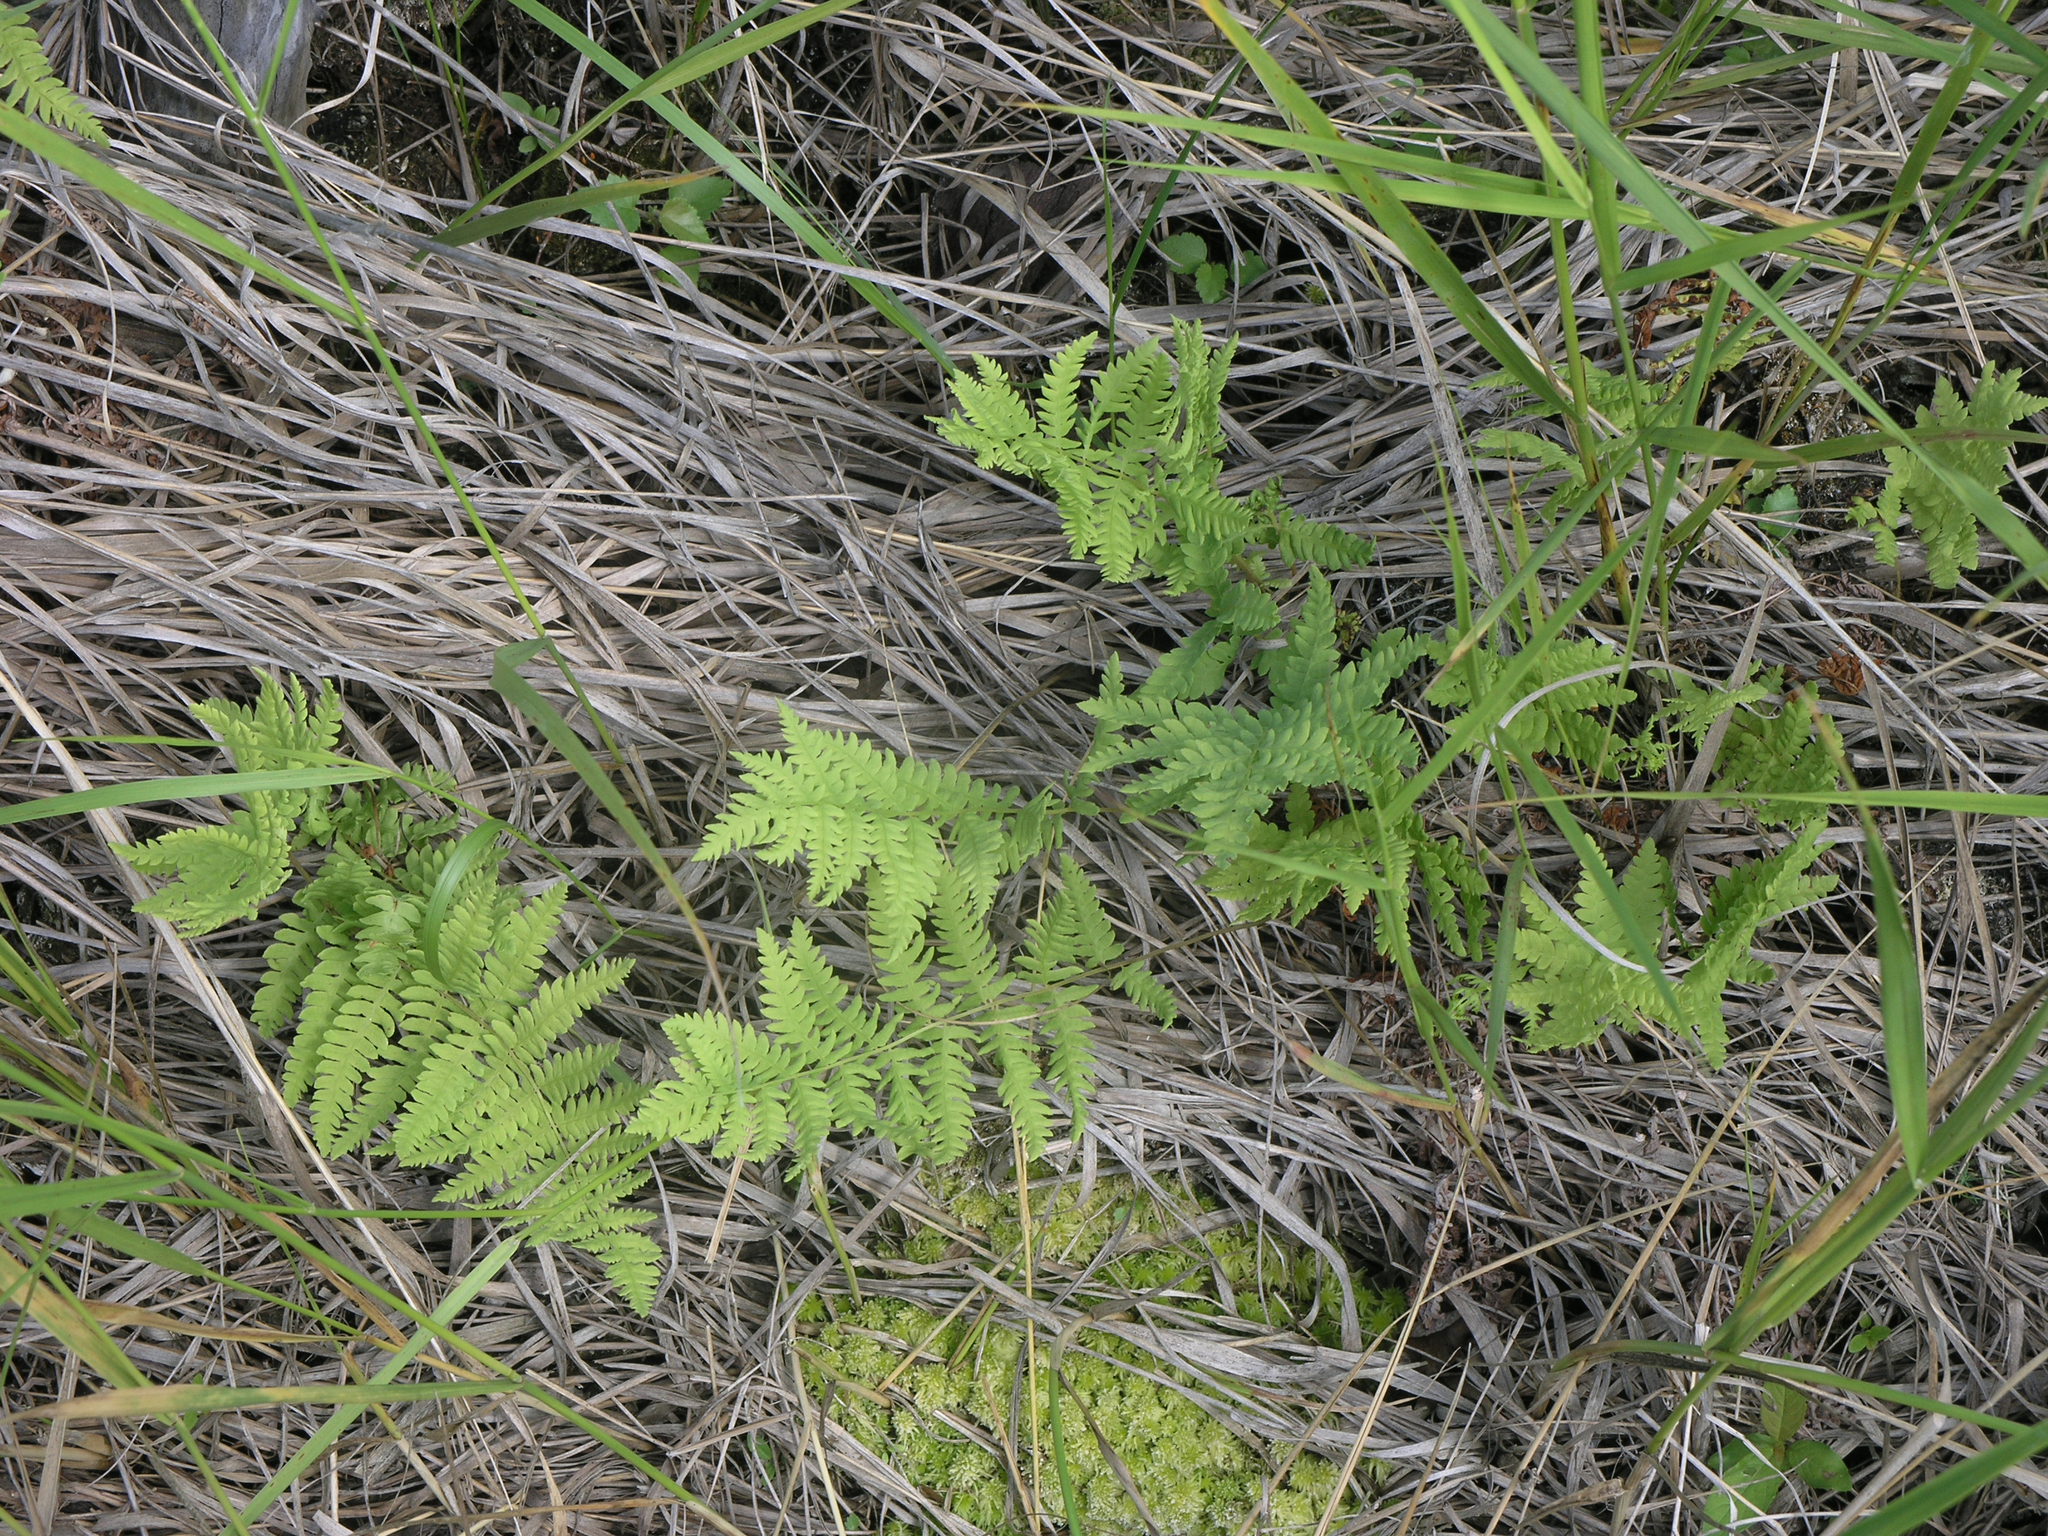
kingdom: Plantae
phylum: Tracheophyta
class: Polypodiopsida
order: Polypodiales
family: Thelypteridaceae
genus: Thelypteris
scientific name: Thelypteris palustris
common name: Marsh fern
